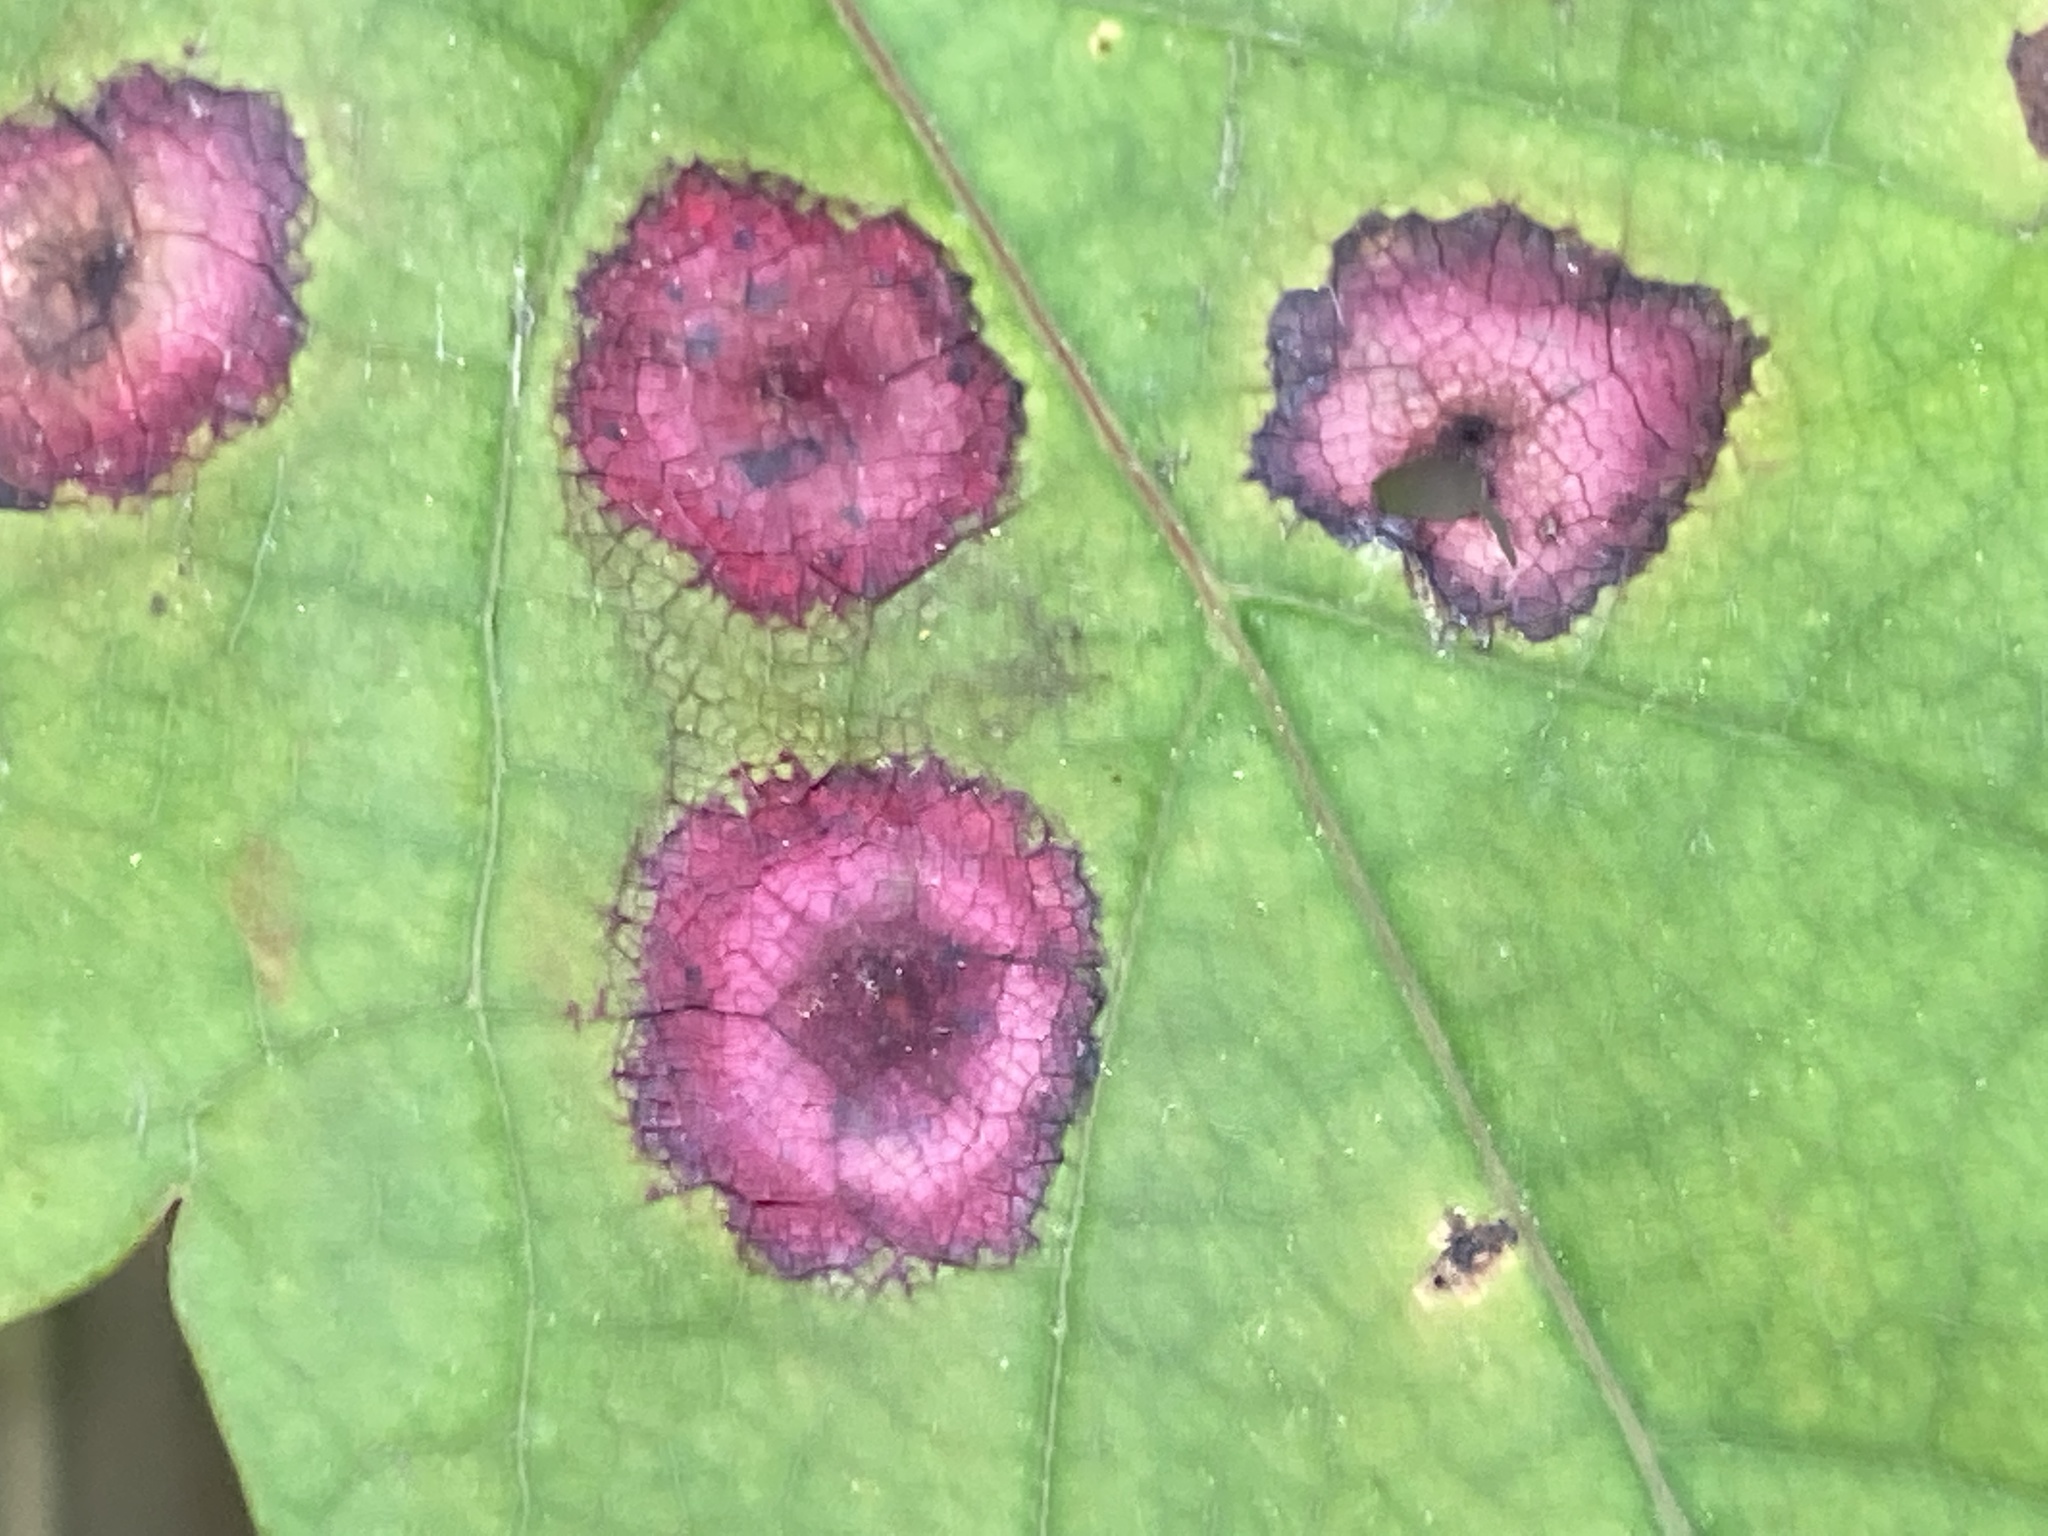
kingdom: Animalia
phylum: Arthropoda
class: Insecta
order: Diptera
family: Cecidomyiidae
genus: Acericecis
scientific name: Acericecis ocellaris
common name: Ocellate gall midge
